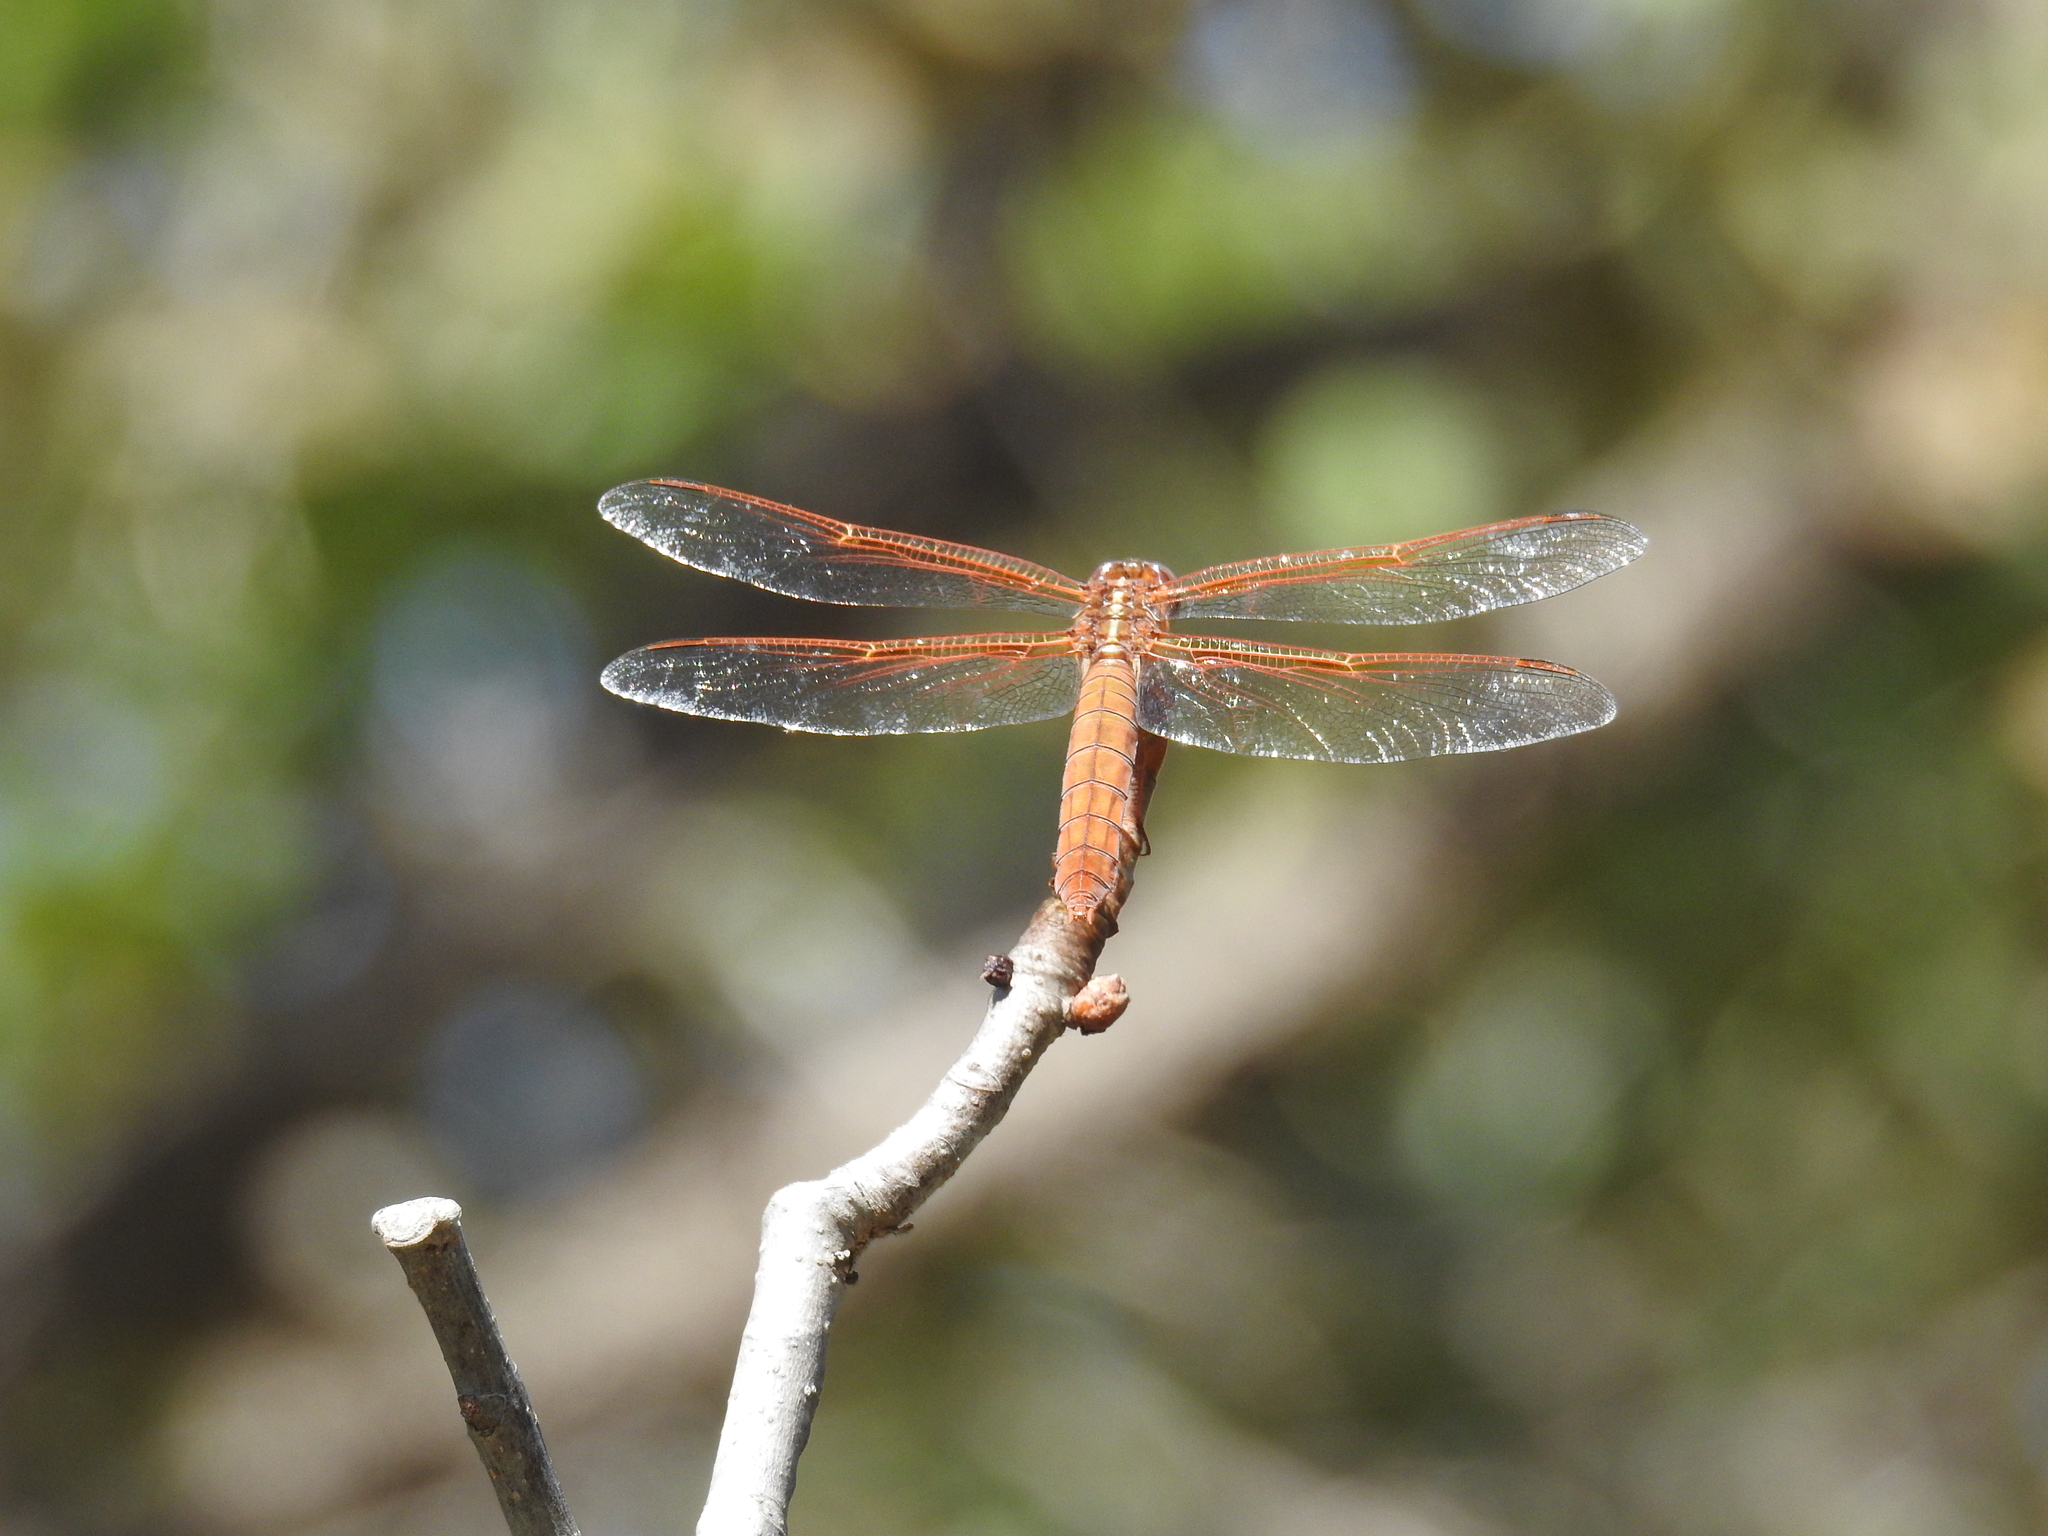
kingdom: Animalia
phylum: Arthropoda
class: Insecta
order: Odonata
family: Libellulidae
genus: Libellula
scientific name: Libellula saturata
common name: Flame skimmer
